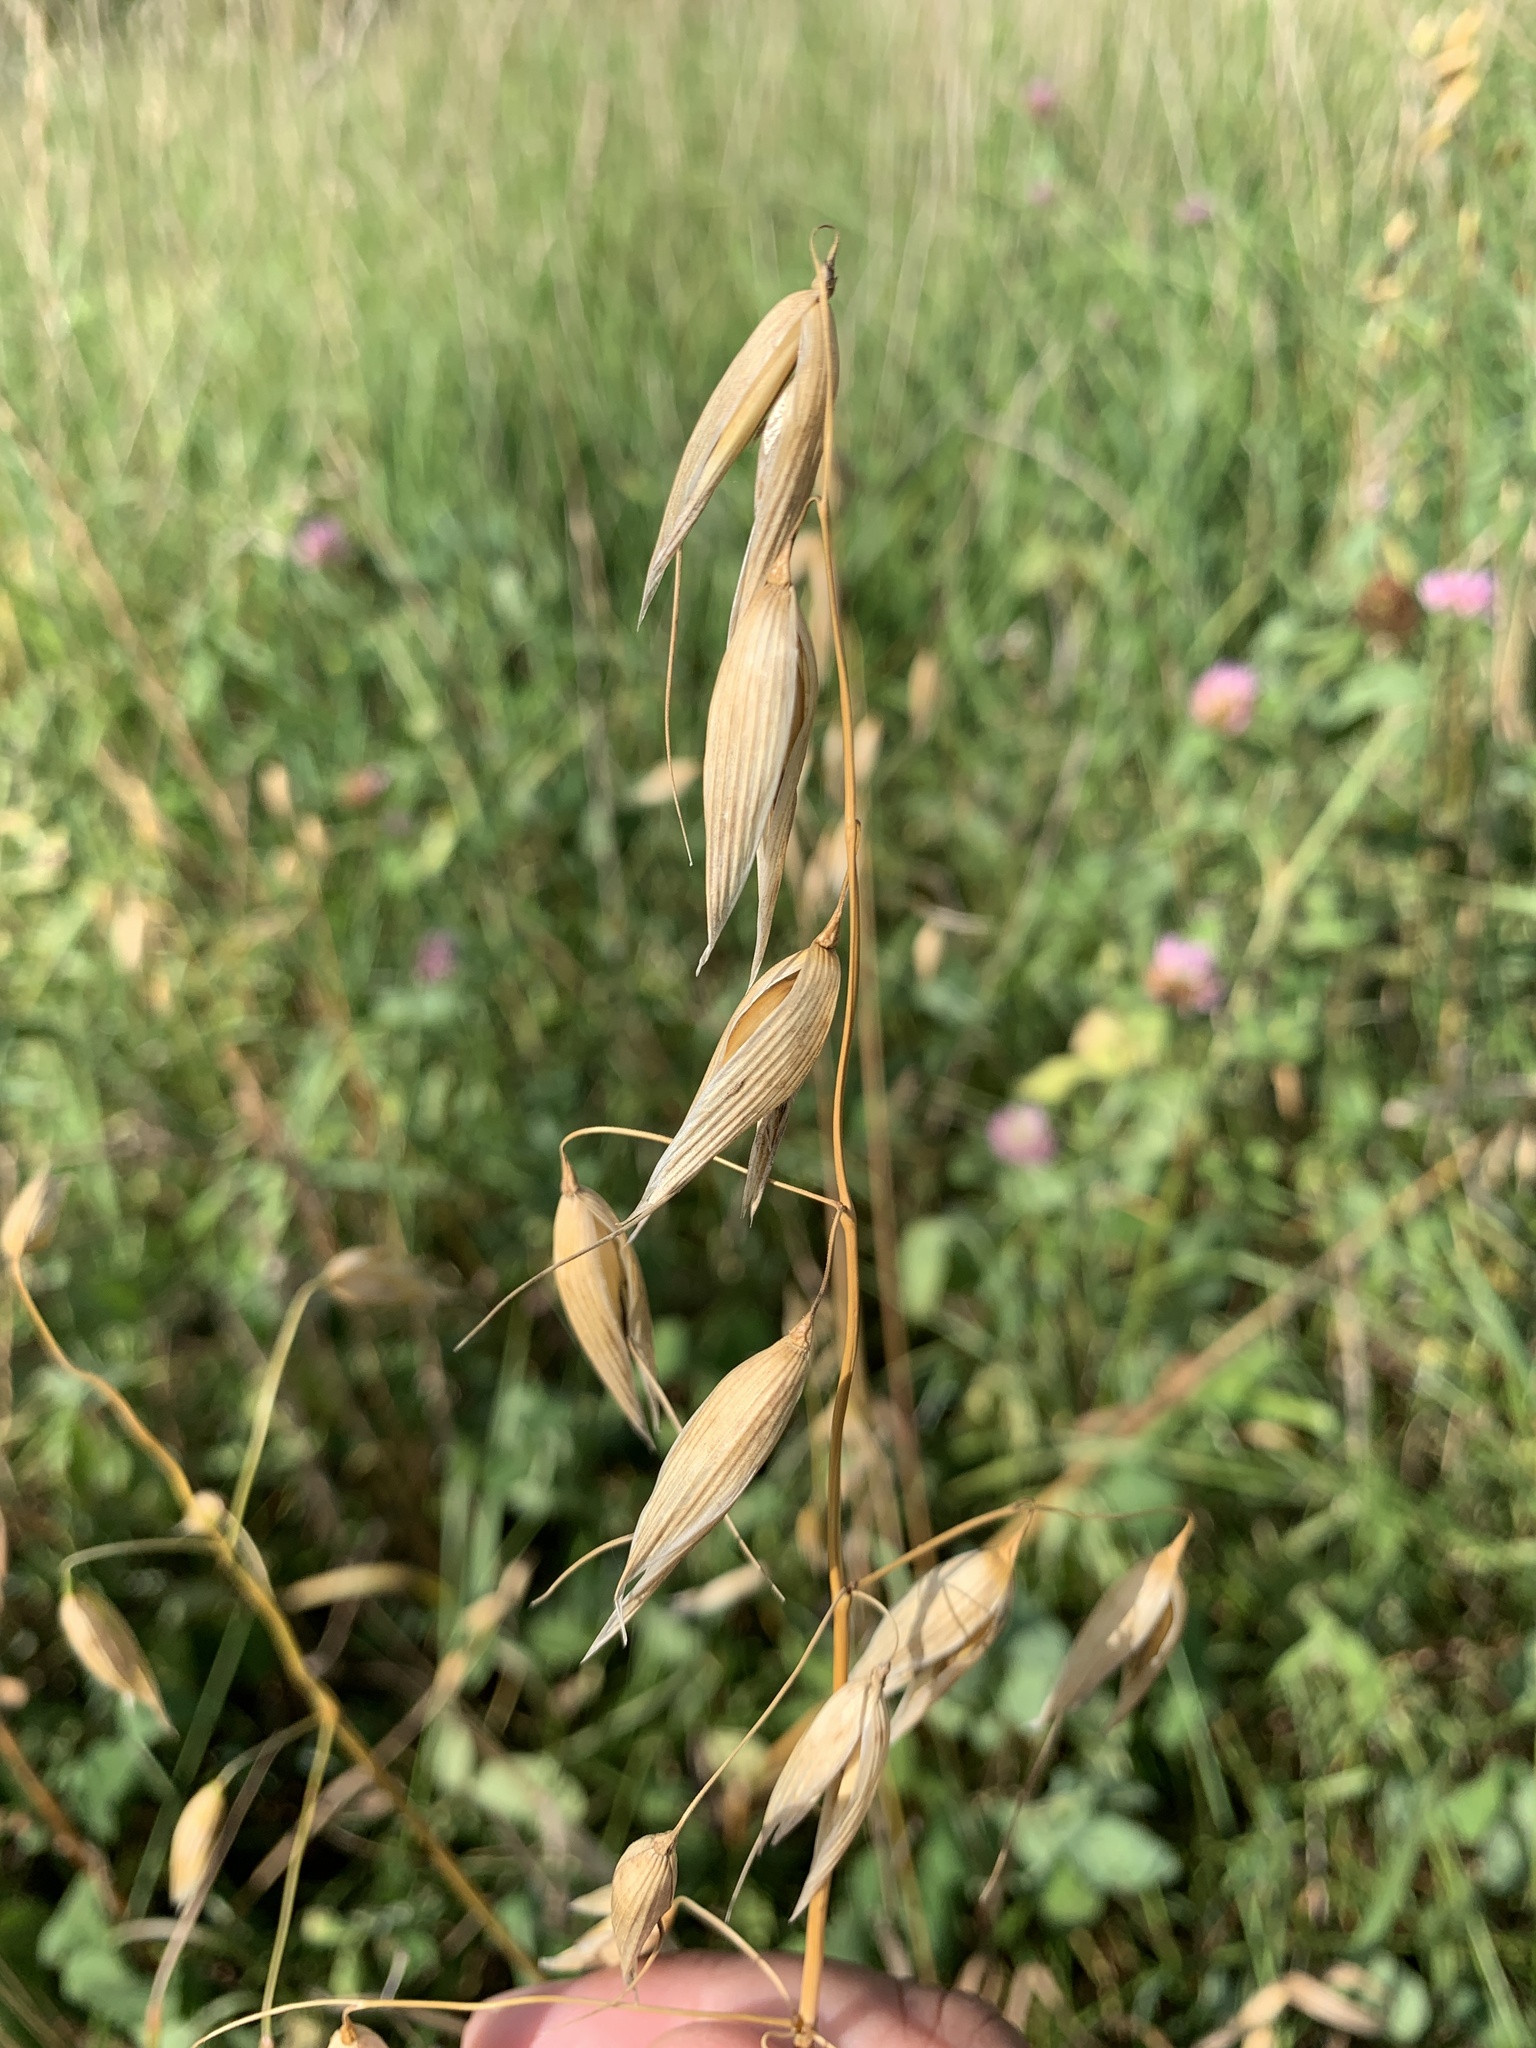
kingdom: Plantae
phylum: Tracheophyta
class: Liliopsida
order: Poales
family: Poaceae
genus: Avena
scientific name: Avena sativa
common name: Oat
